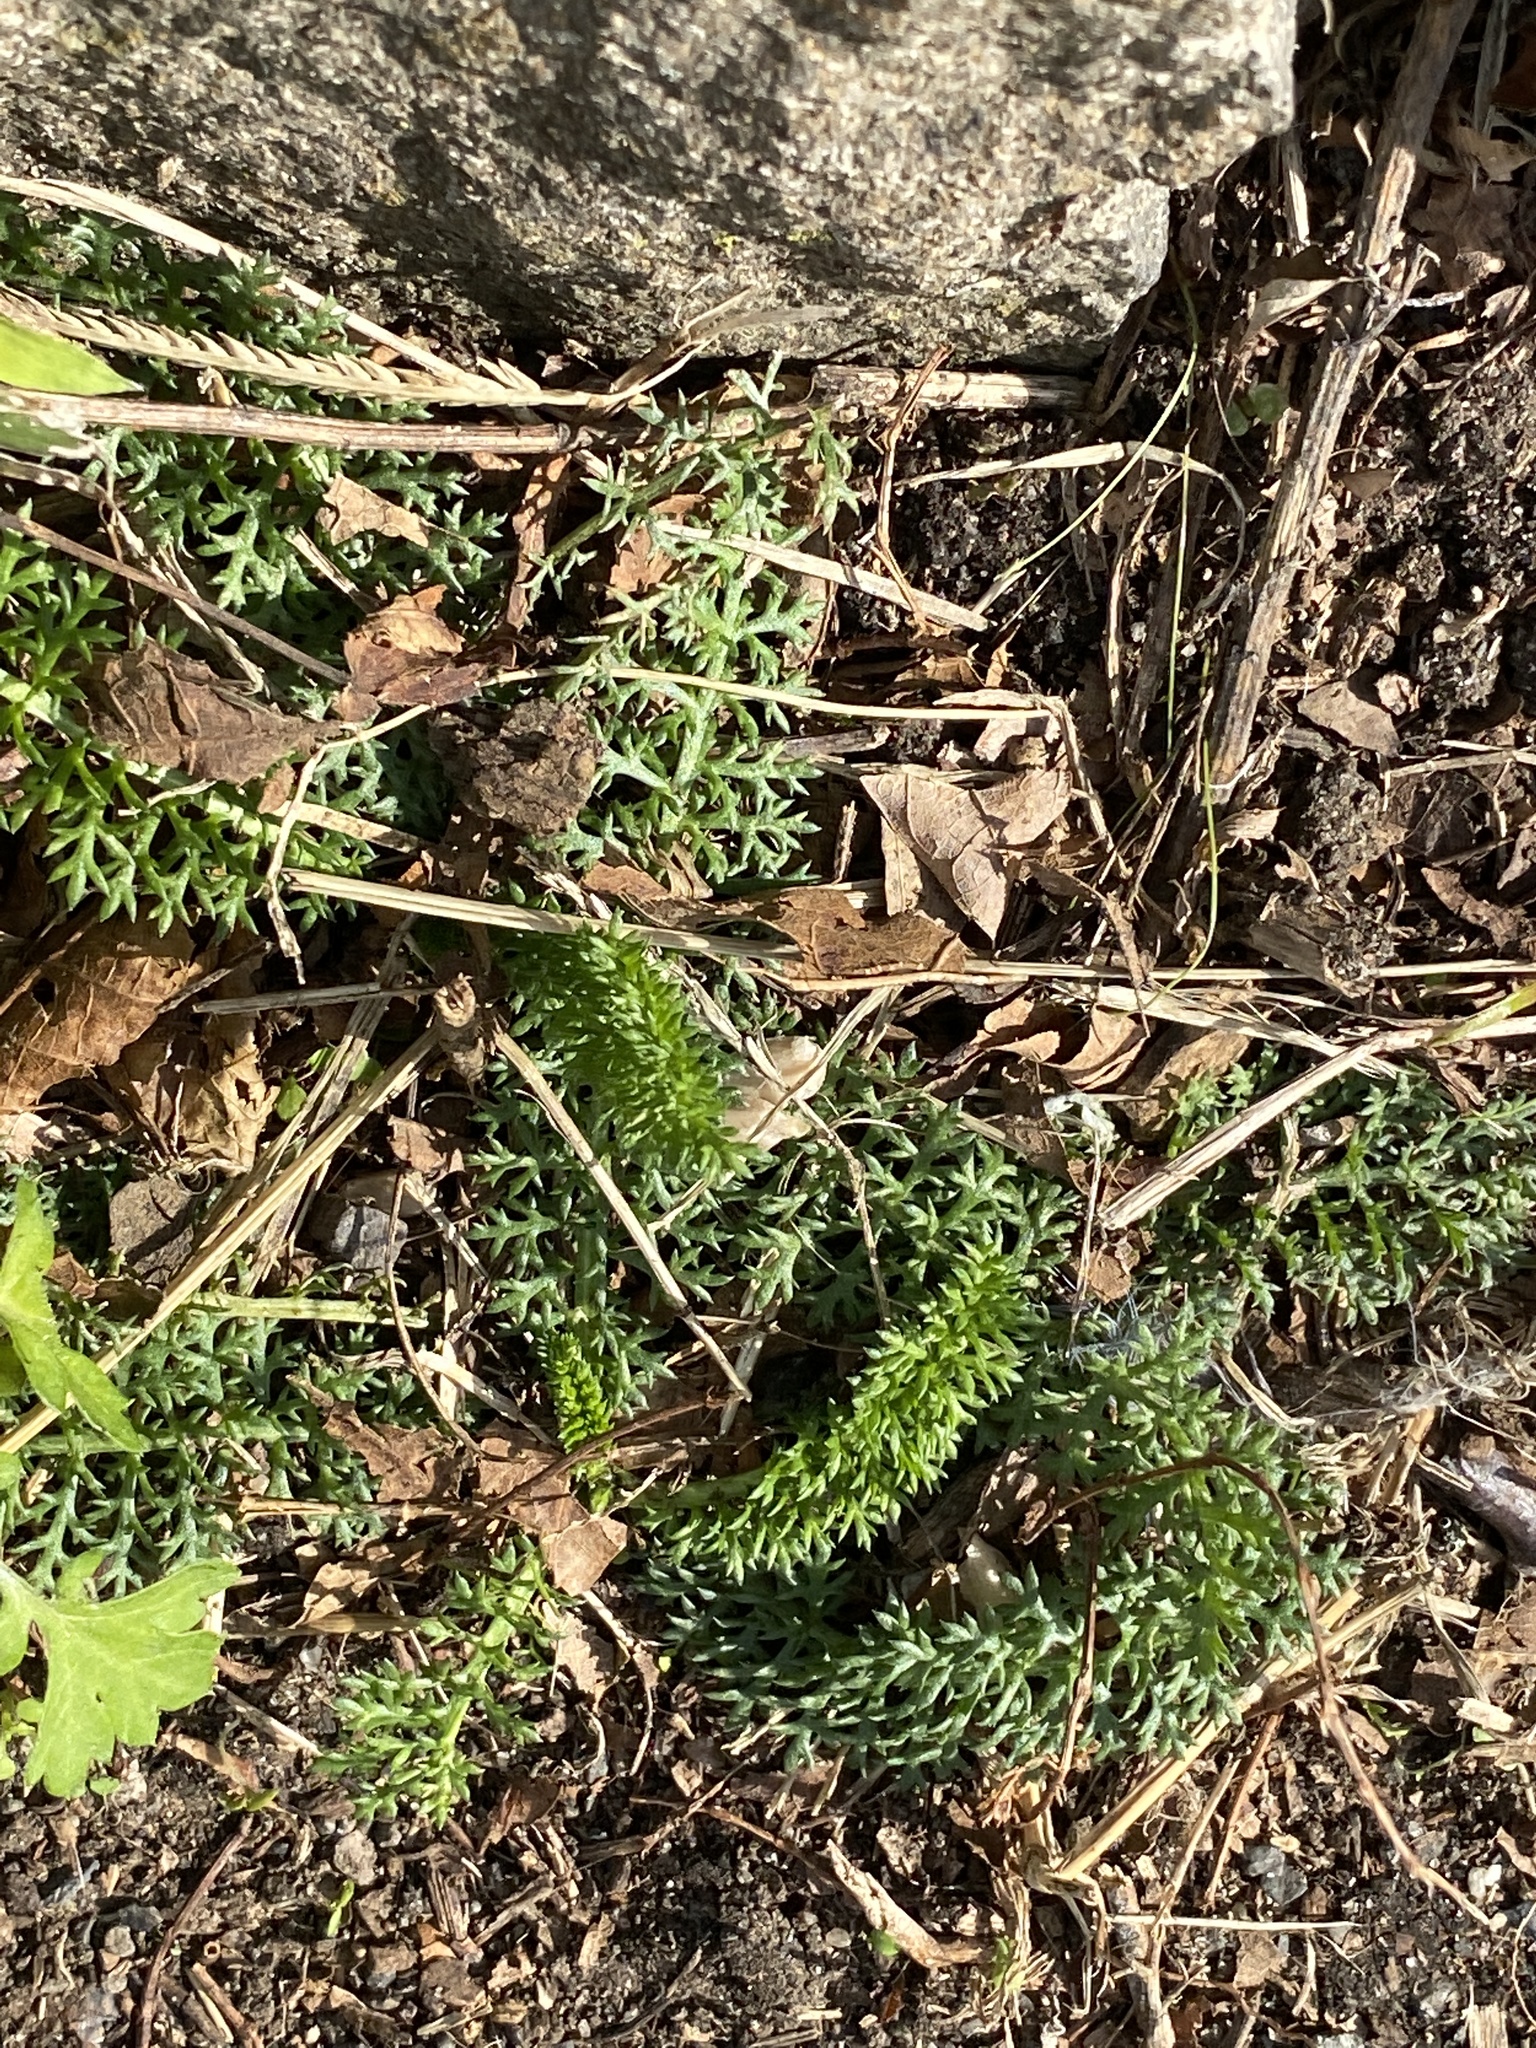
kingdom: Plantae
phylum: Tracheophyta
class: Magnoliopsida
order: Asterales
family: Asteraceae
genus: Achillea
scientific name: Achillea millefolium
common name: Yarrow
